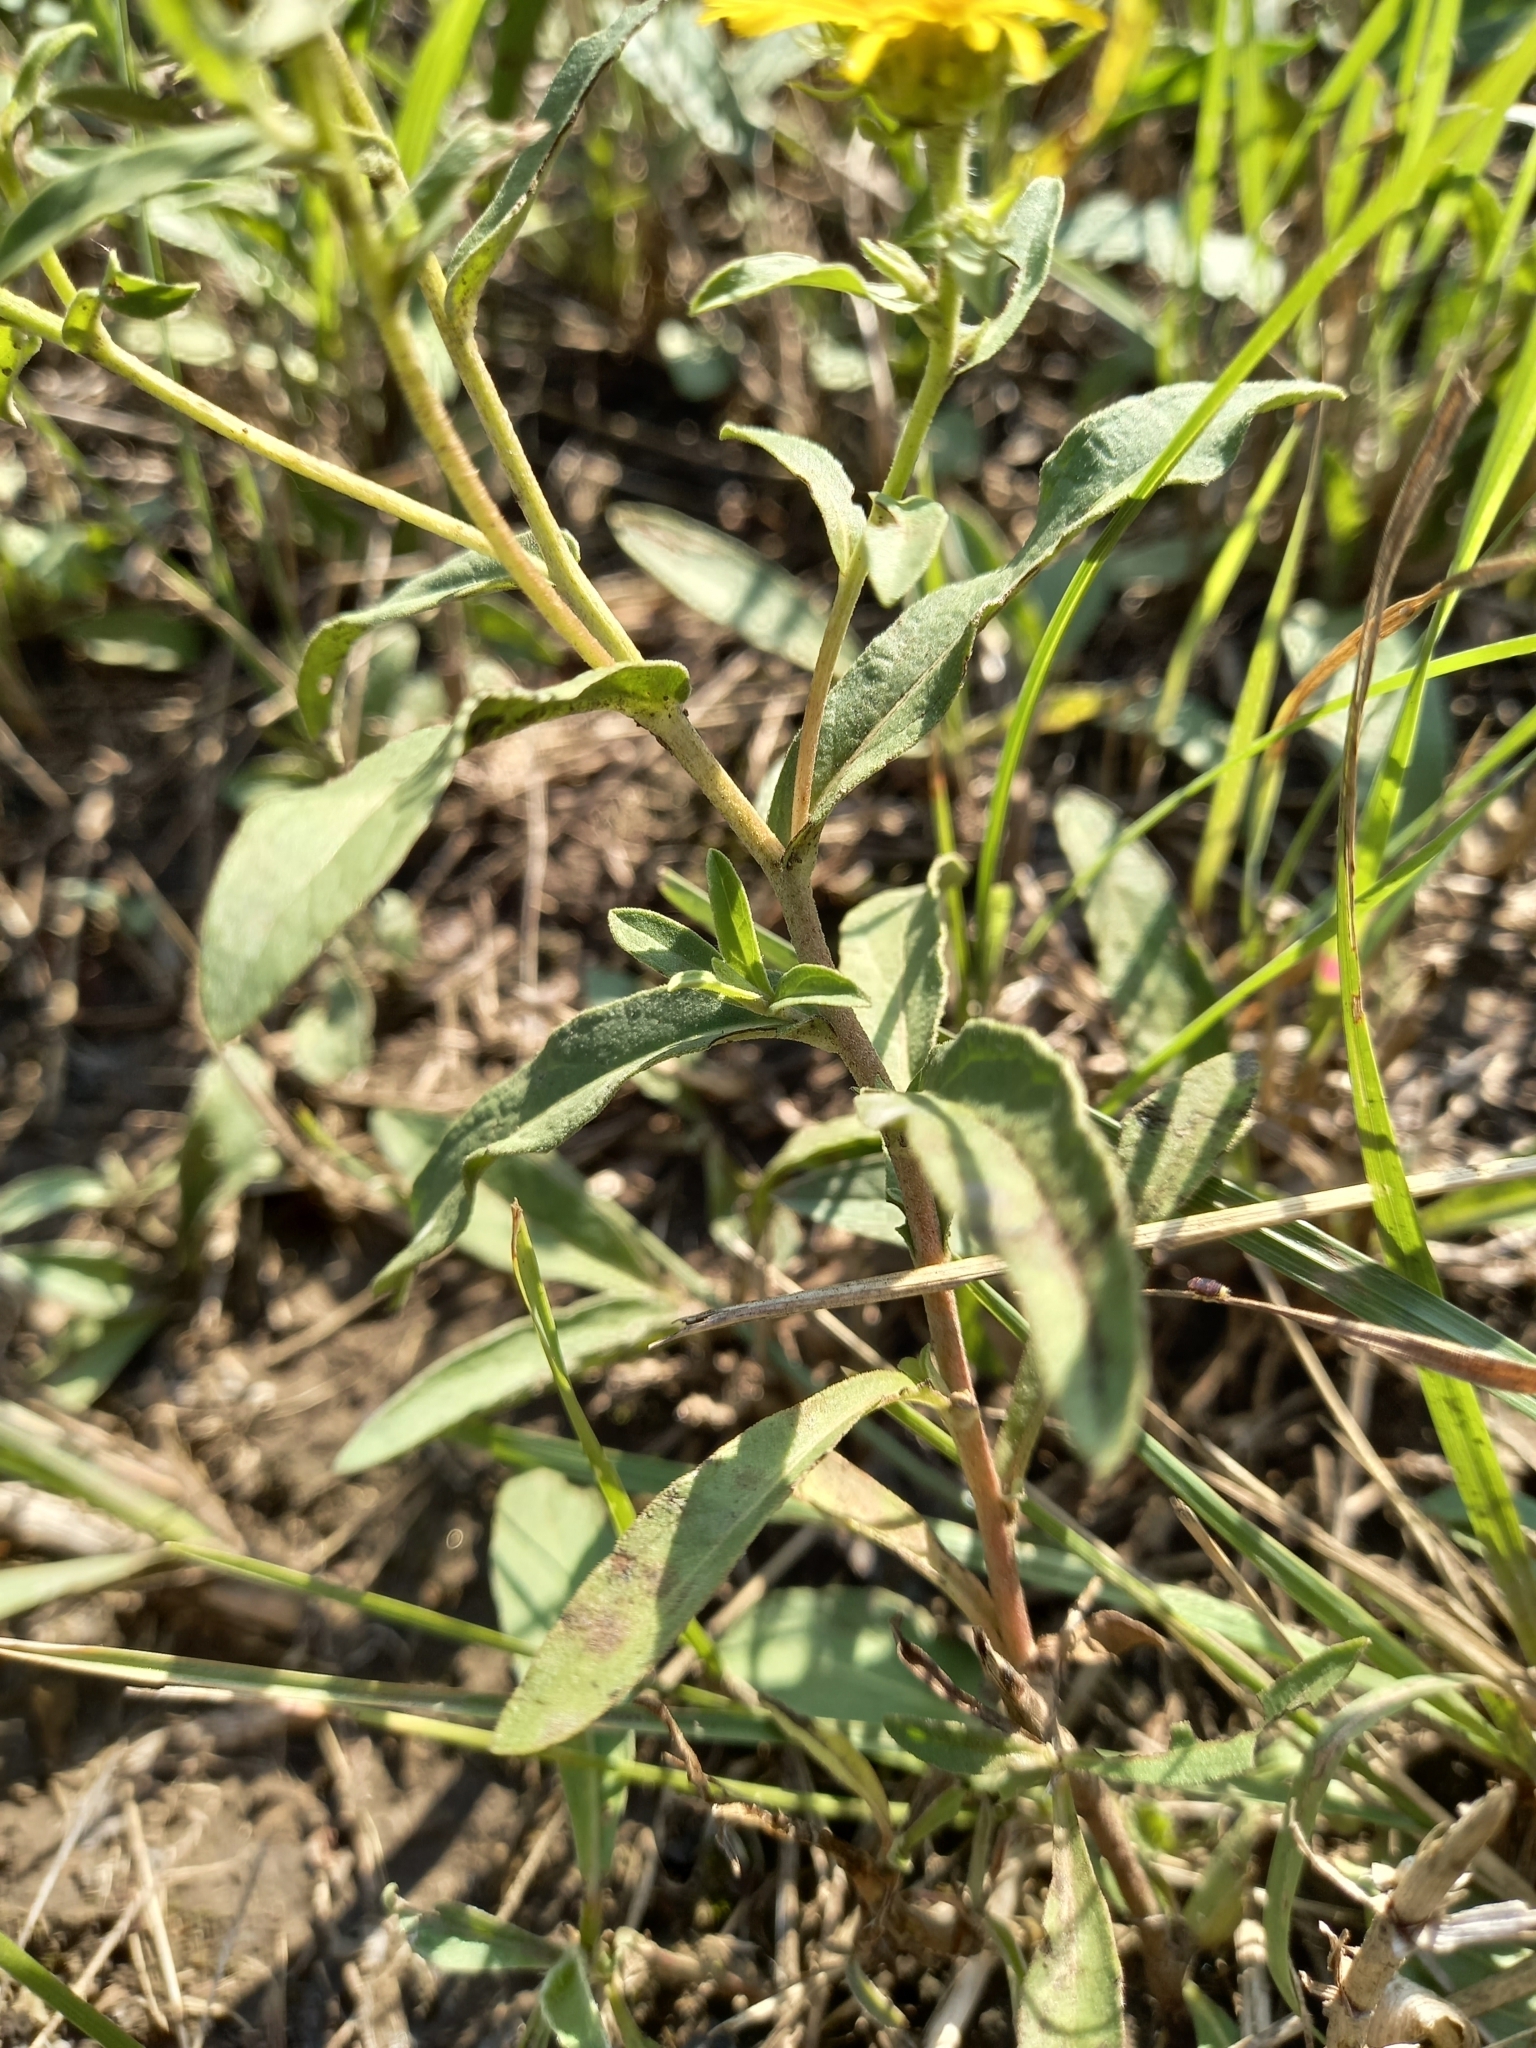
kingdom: Plantae
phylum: Tracheophyta
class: Magnoliopsida
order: Asterales
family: Asteraceae
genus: Pentanema
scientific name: Pentanema britannicum
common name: British elecampane
